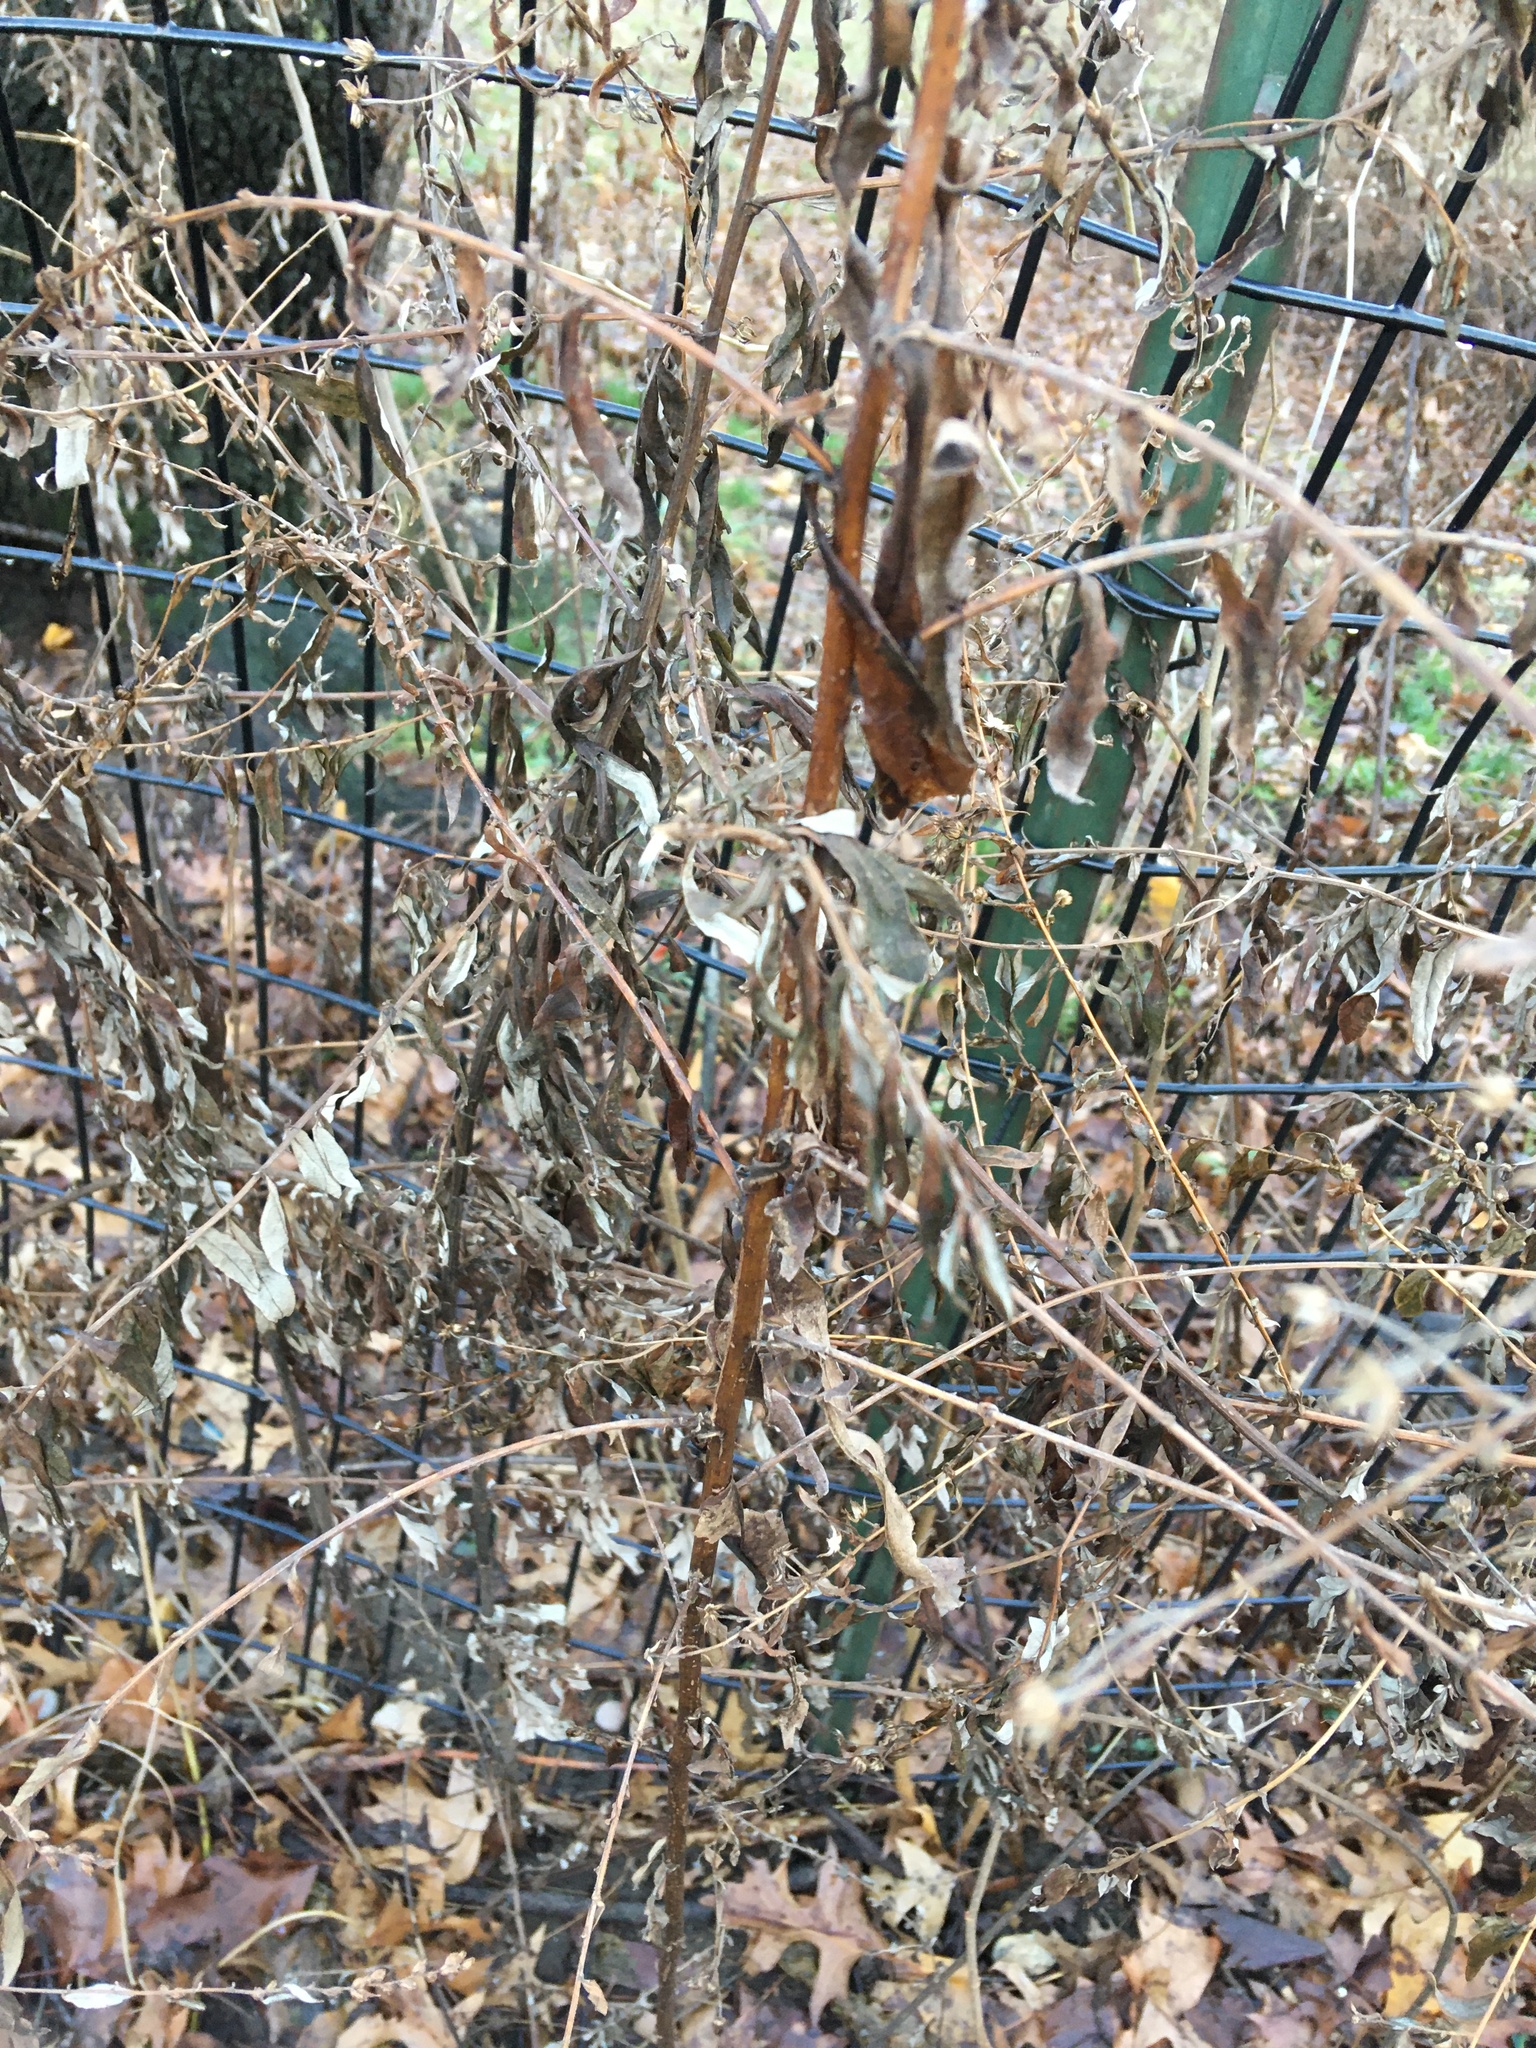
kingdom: Plantae
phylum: Tracheophyta
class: Magnoliopsida
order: Asterales
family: Asteraceae
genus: Artemisia
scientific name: Artemisia vulgaris
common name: Mugwort
